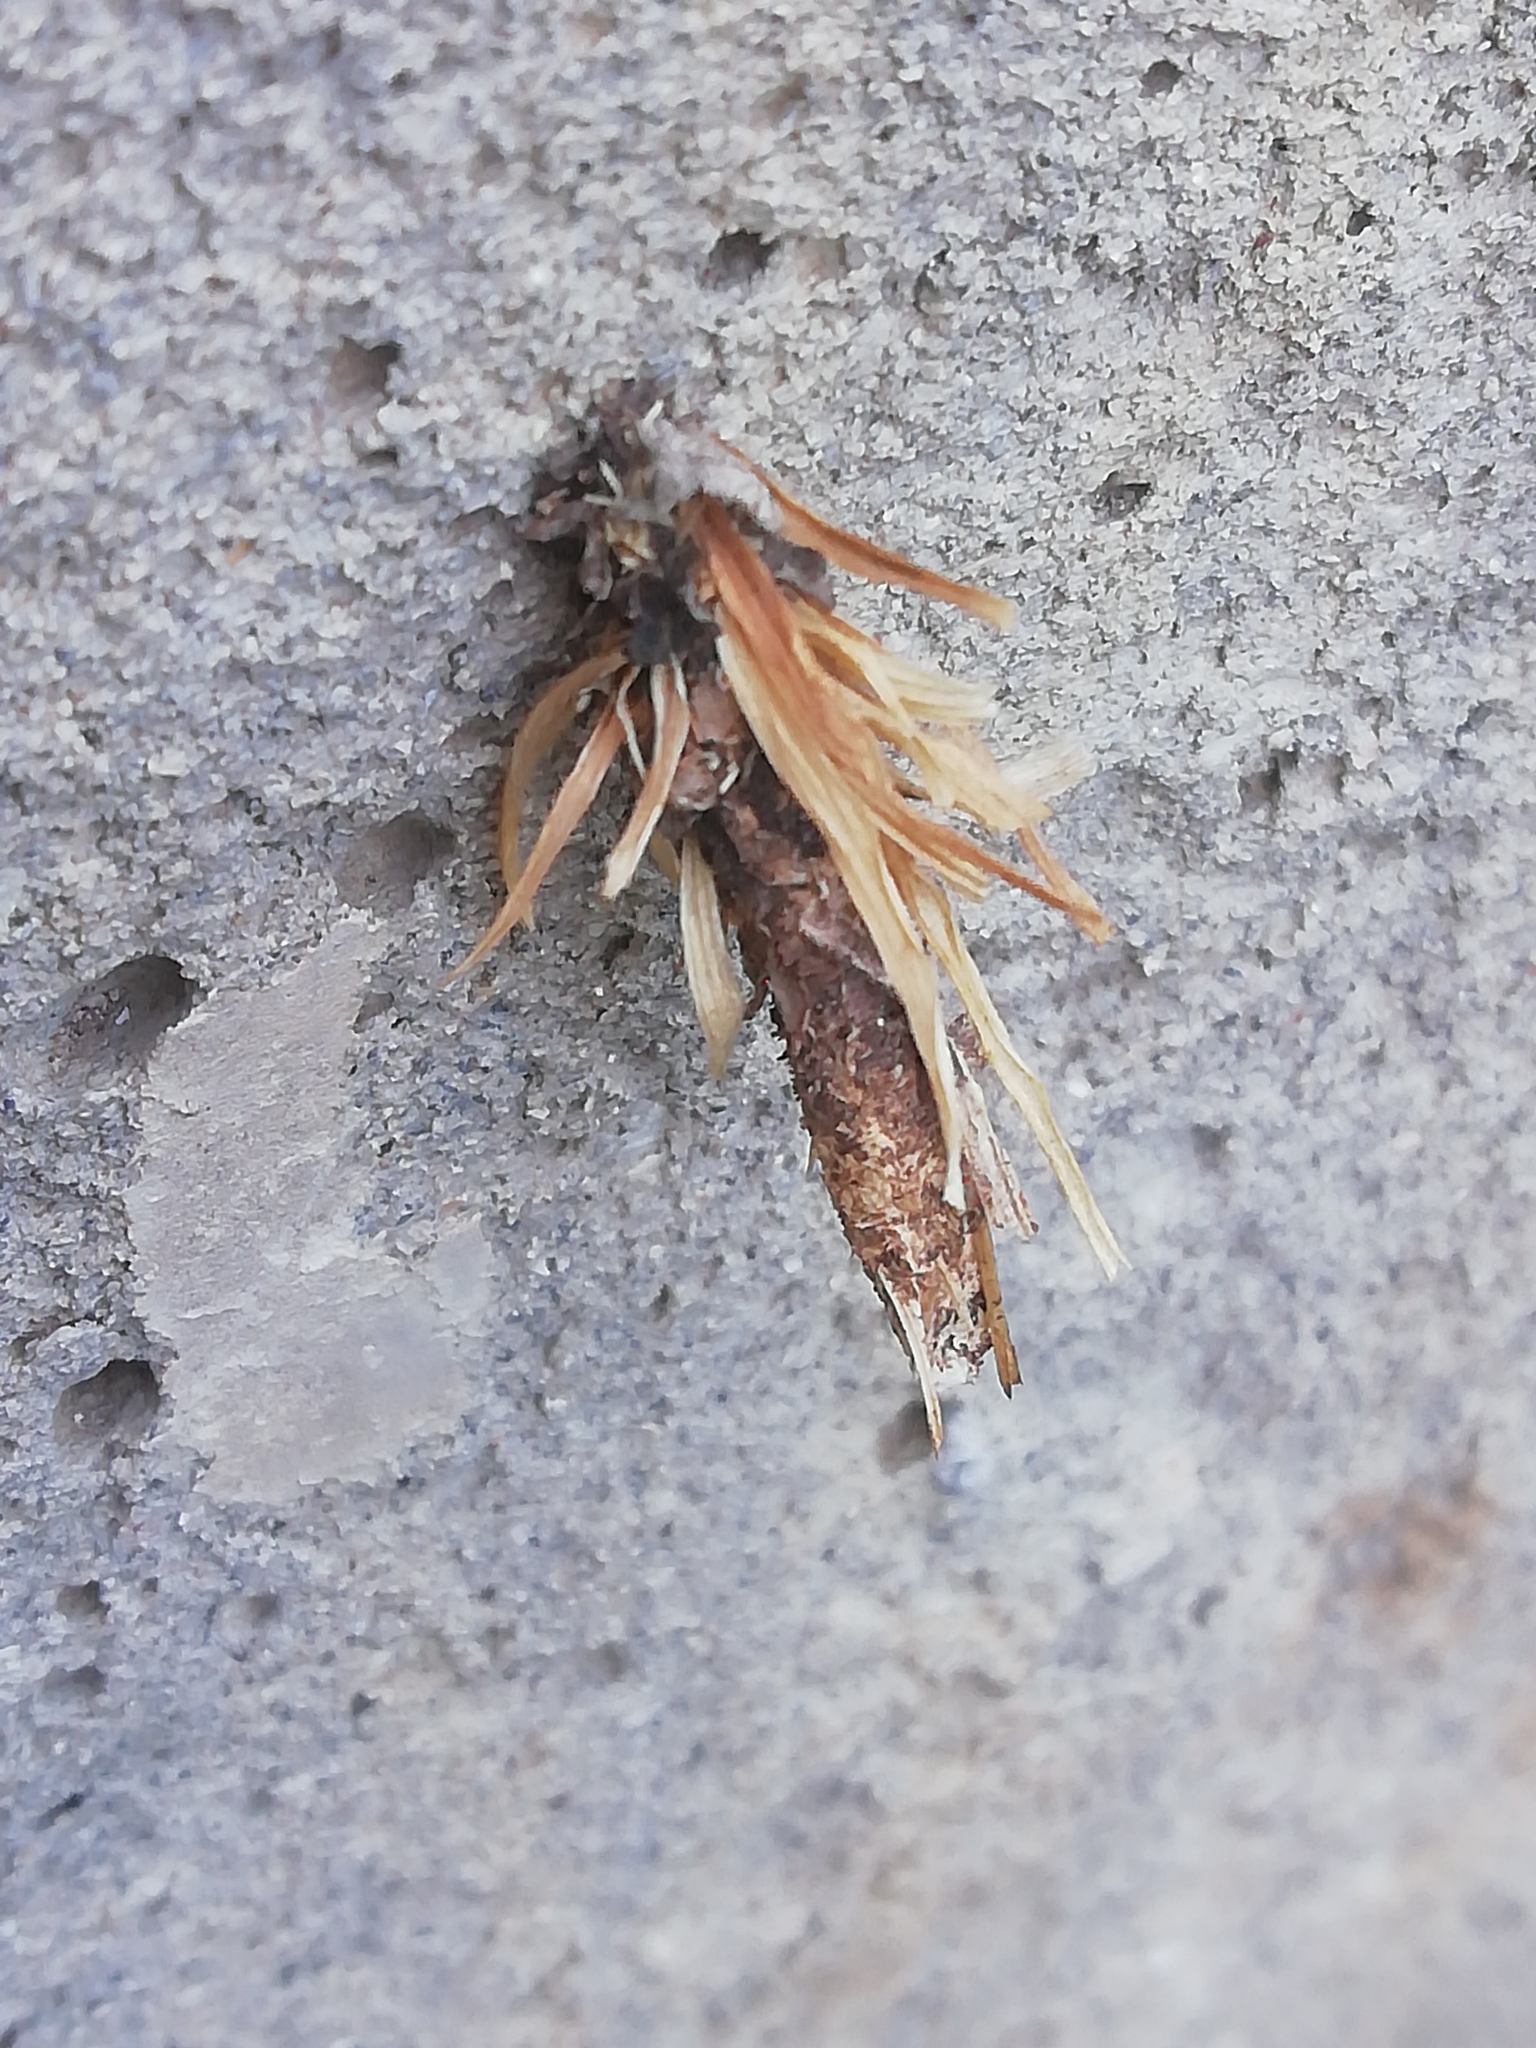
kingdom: Animalia
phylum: Arthropoda
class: Insecta
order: Lepidoptera
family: Psychidae
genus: Canephora
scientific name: Canephora hirsuta
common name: Hairy sweep
